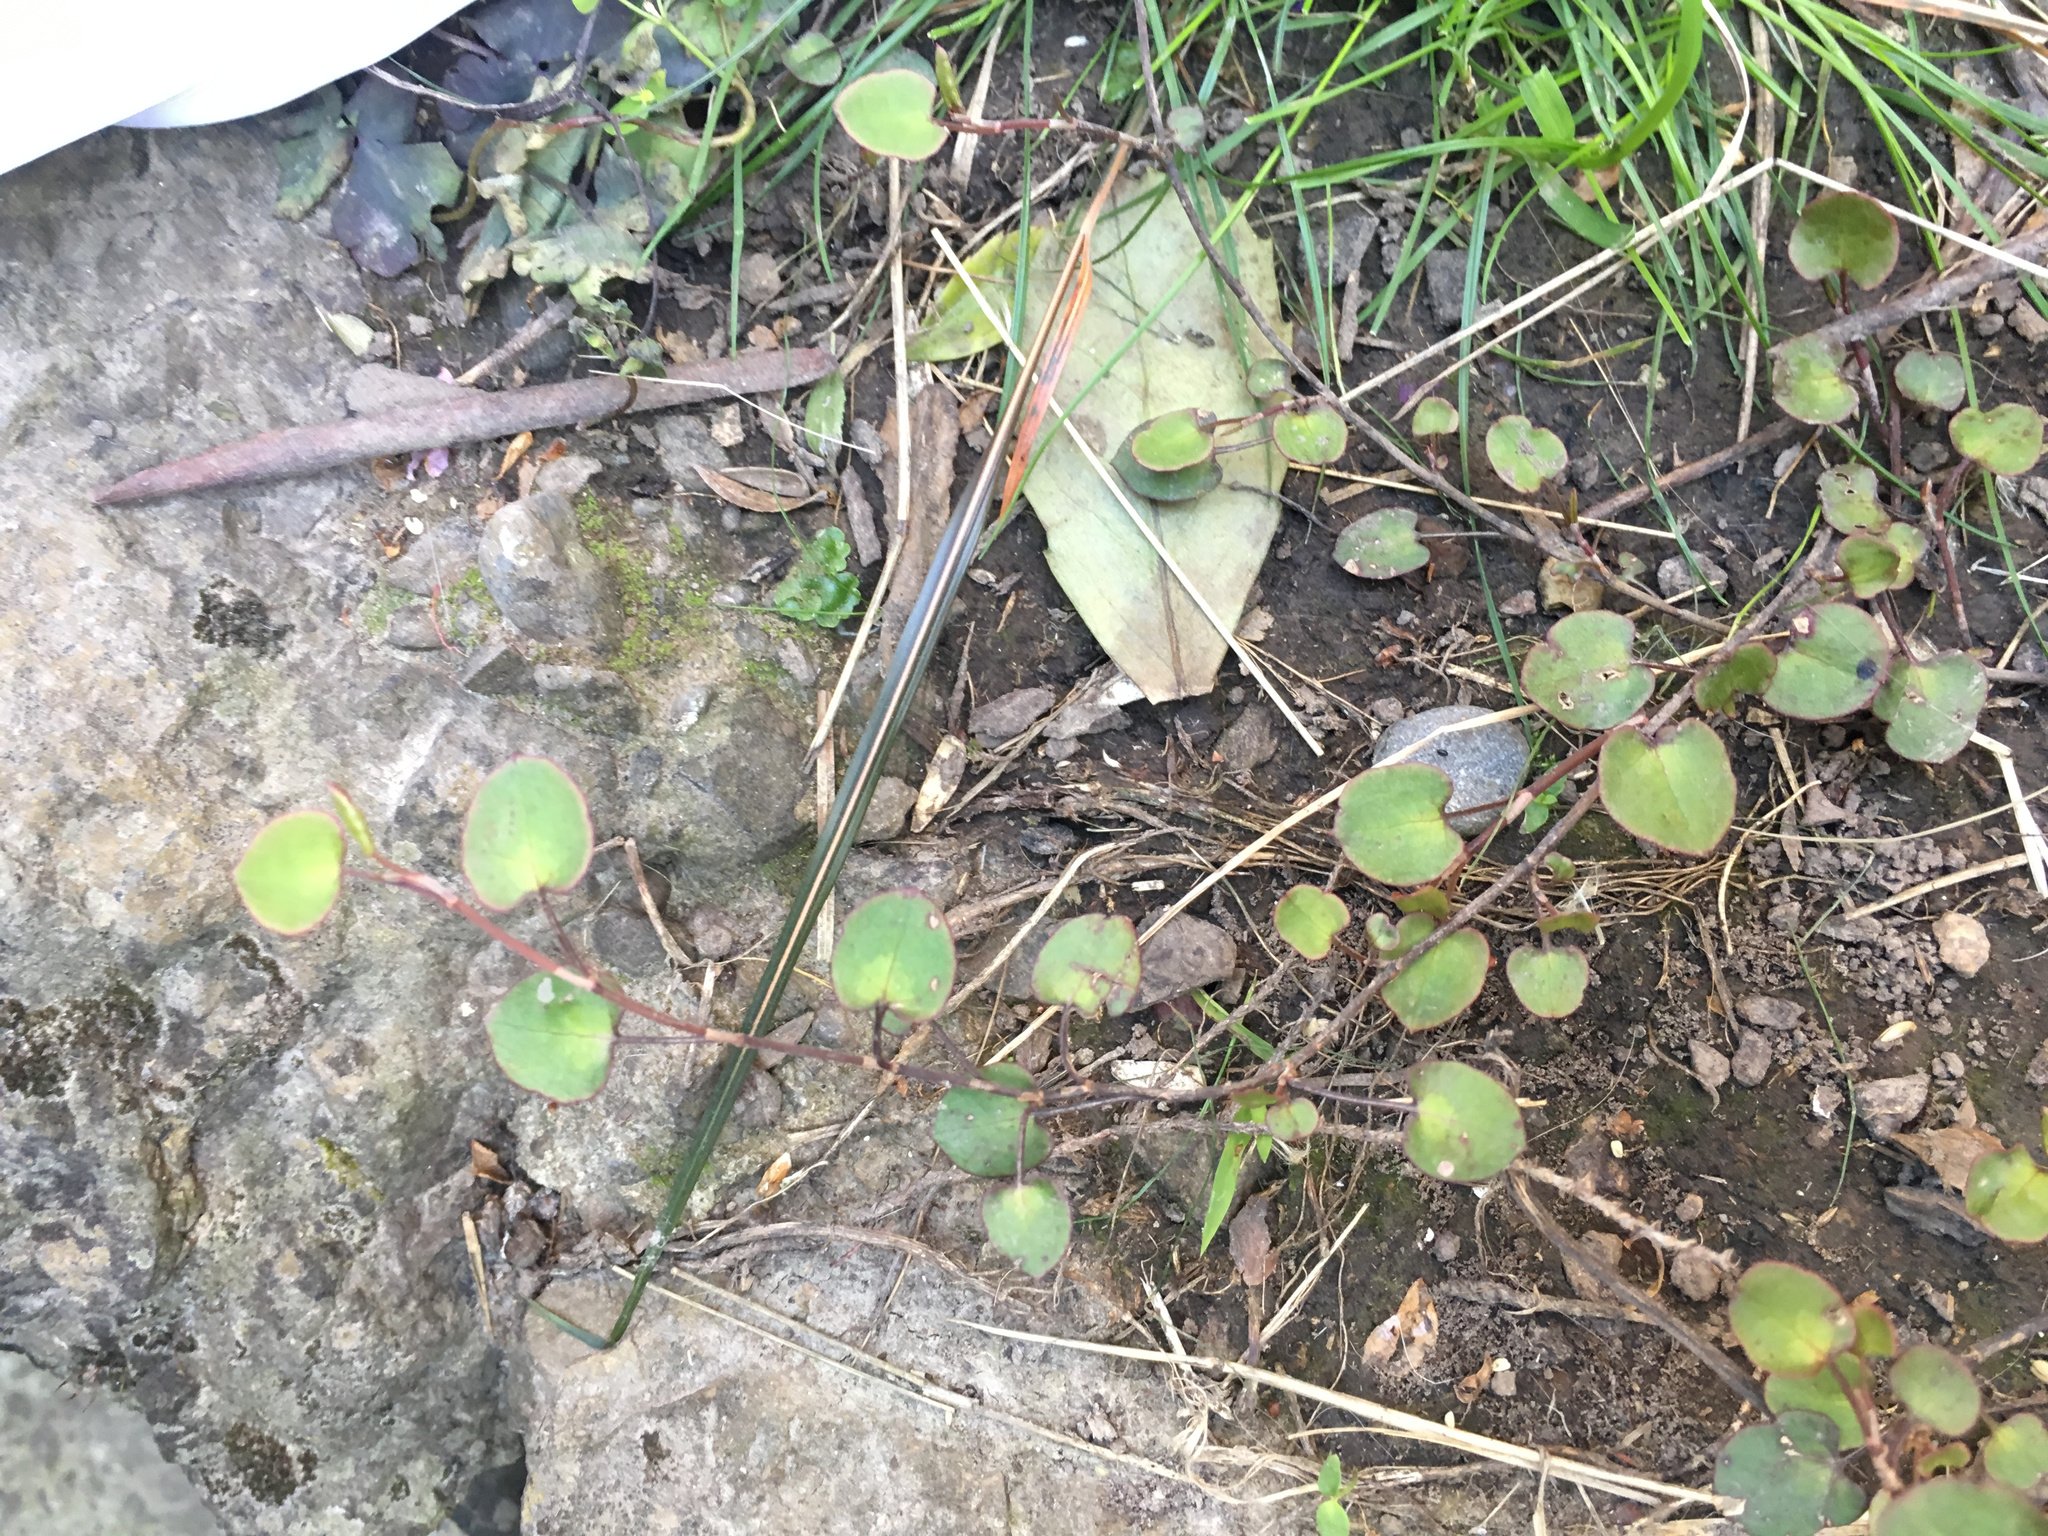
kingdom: Plantae
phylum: Tracheophyta
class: Magnoliopsida
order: Caryophyllales
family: Polygonaceae
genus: Muehlenbeckia
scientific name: Muehlenbeckia complexa
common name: Wireplant
